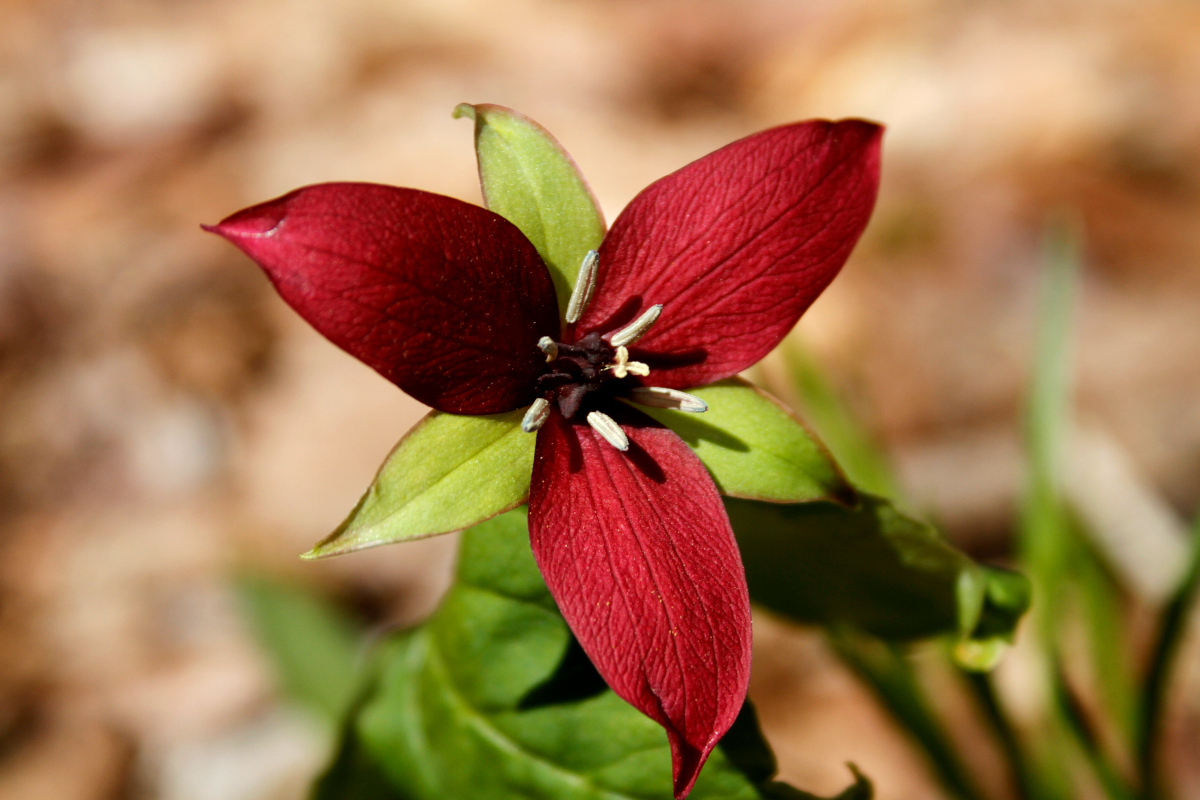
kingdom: Plantae
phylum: Tracheophyta
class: Liliopsida
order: Liliales
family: Melanthiaceae
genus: Trillium
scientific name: Trillium erectum
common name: Purple trillium
